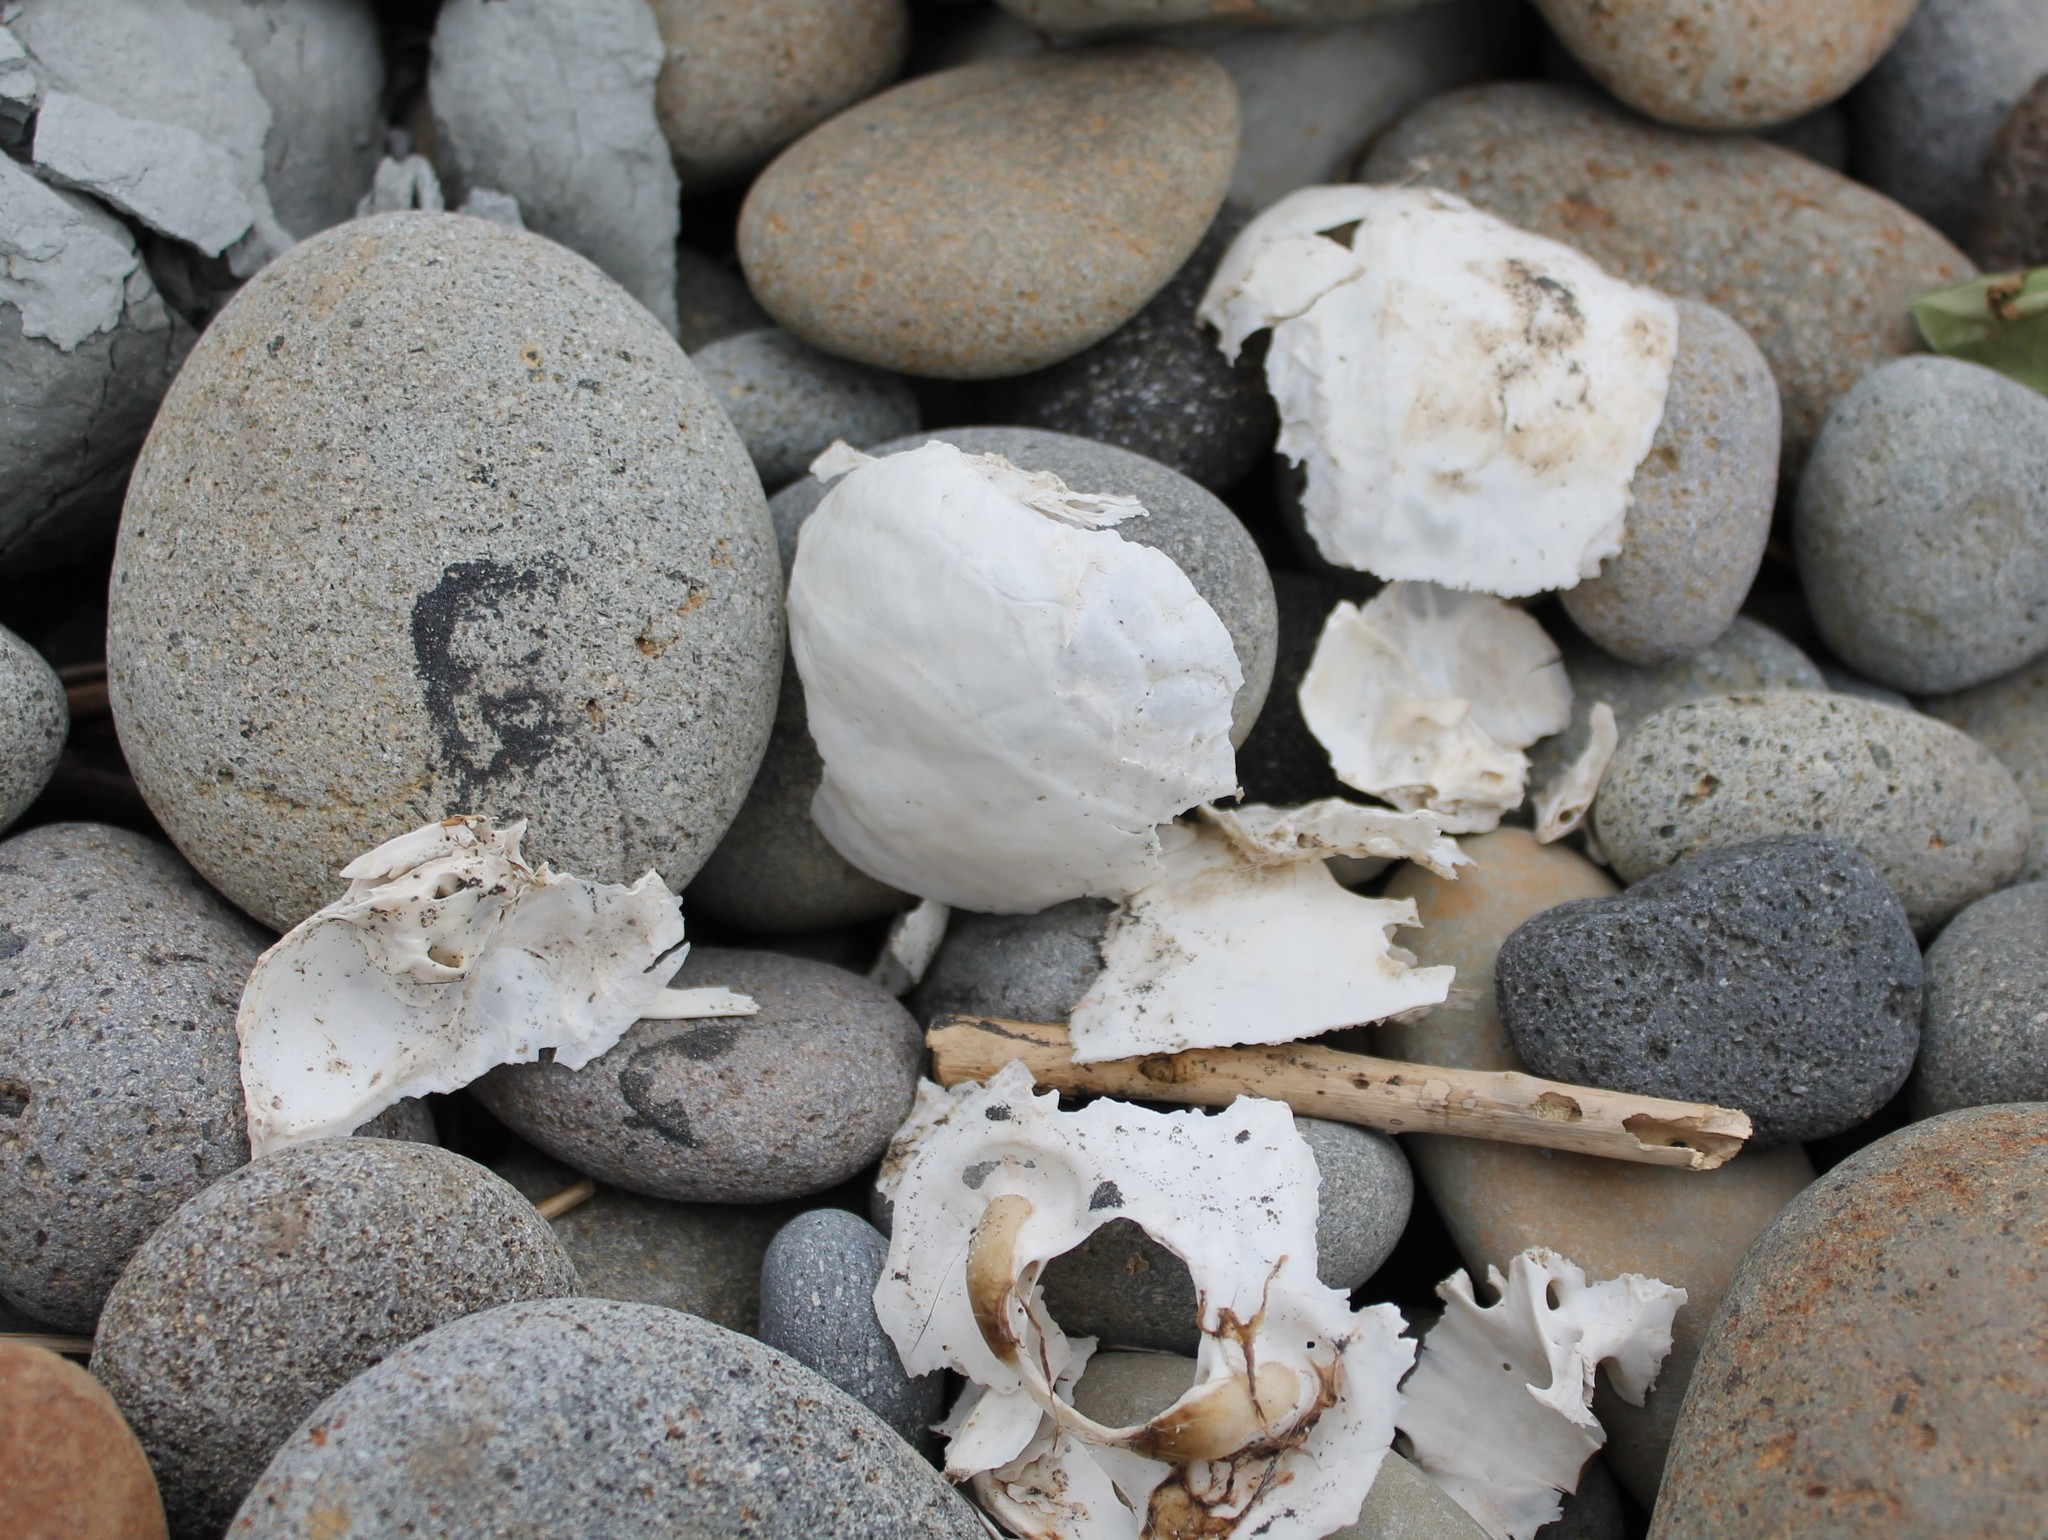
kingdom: Animalia
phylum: Chordata
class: Mammalia
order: Carnivora
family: Otariidae
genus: Arctocephalus
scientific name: Arctocephalus forsteri
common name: New zealand fur seal
